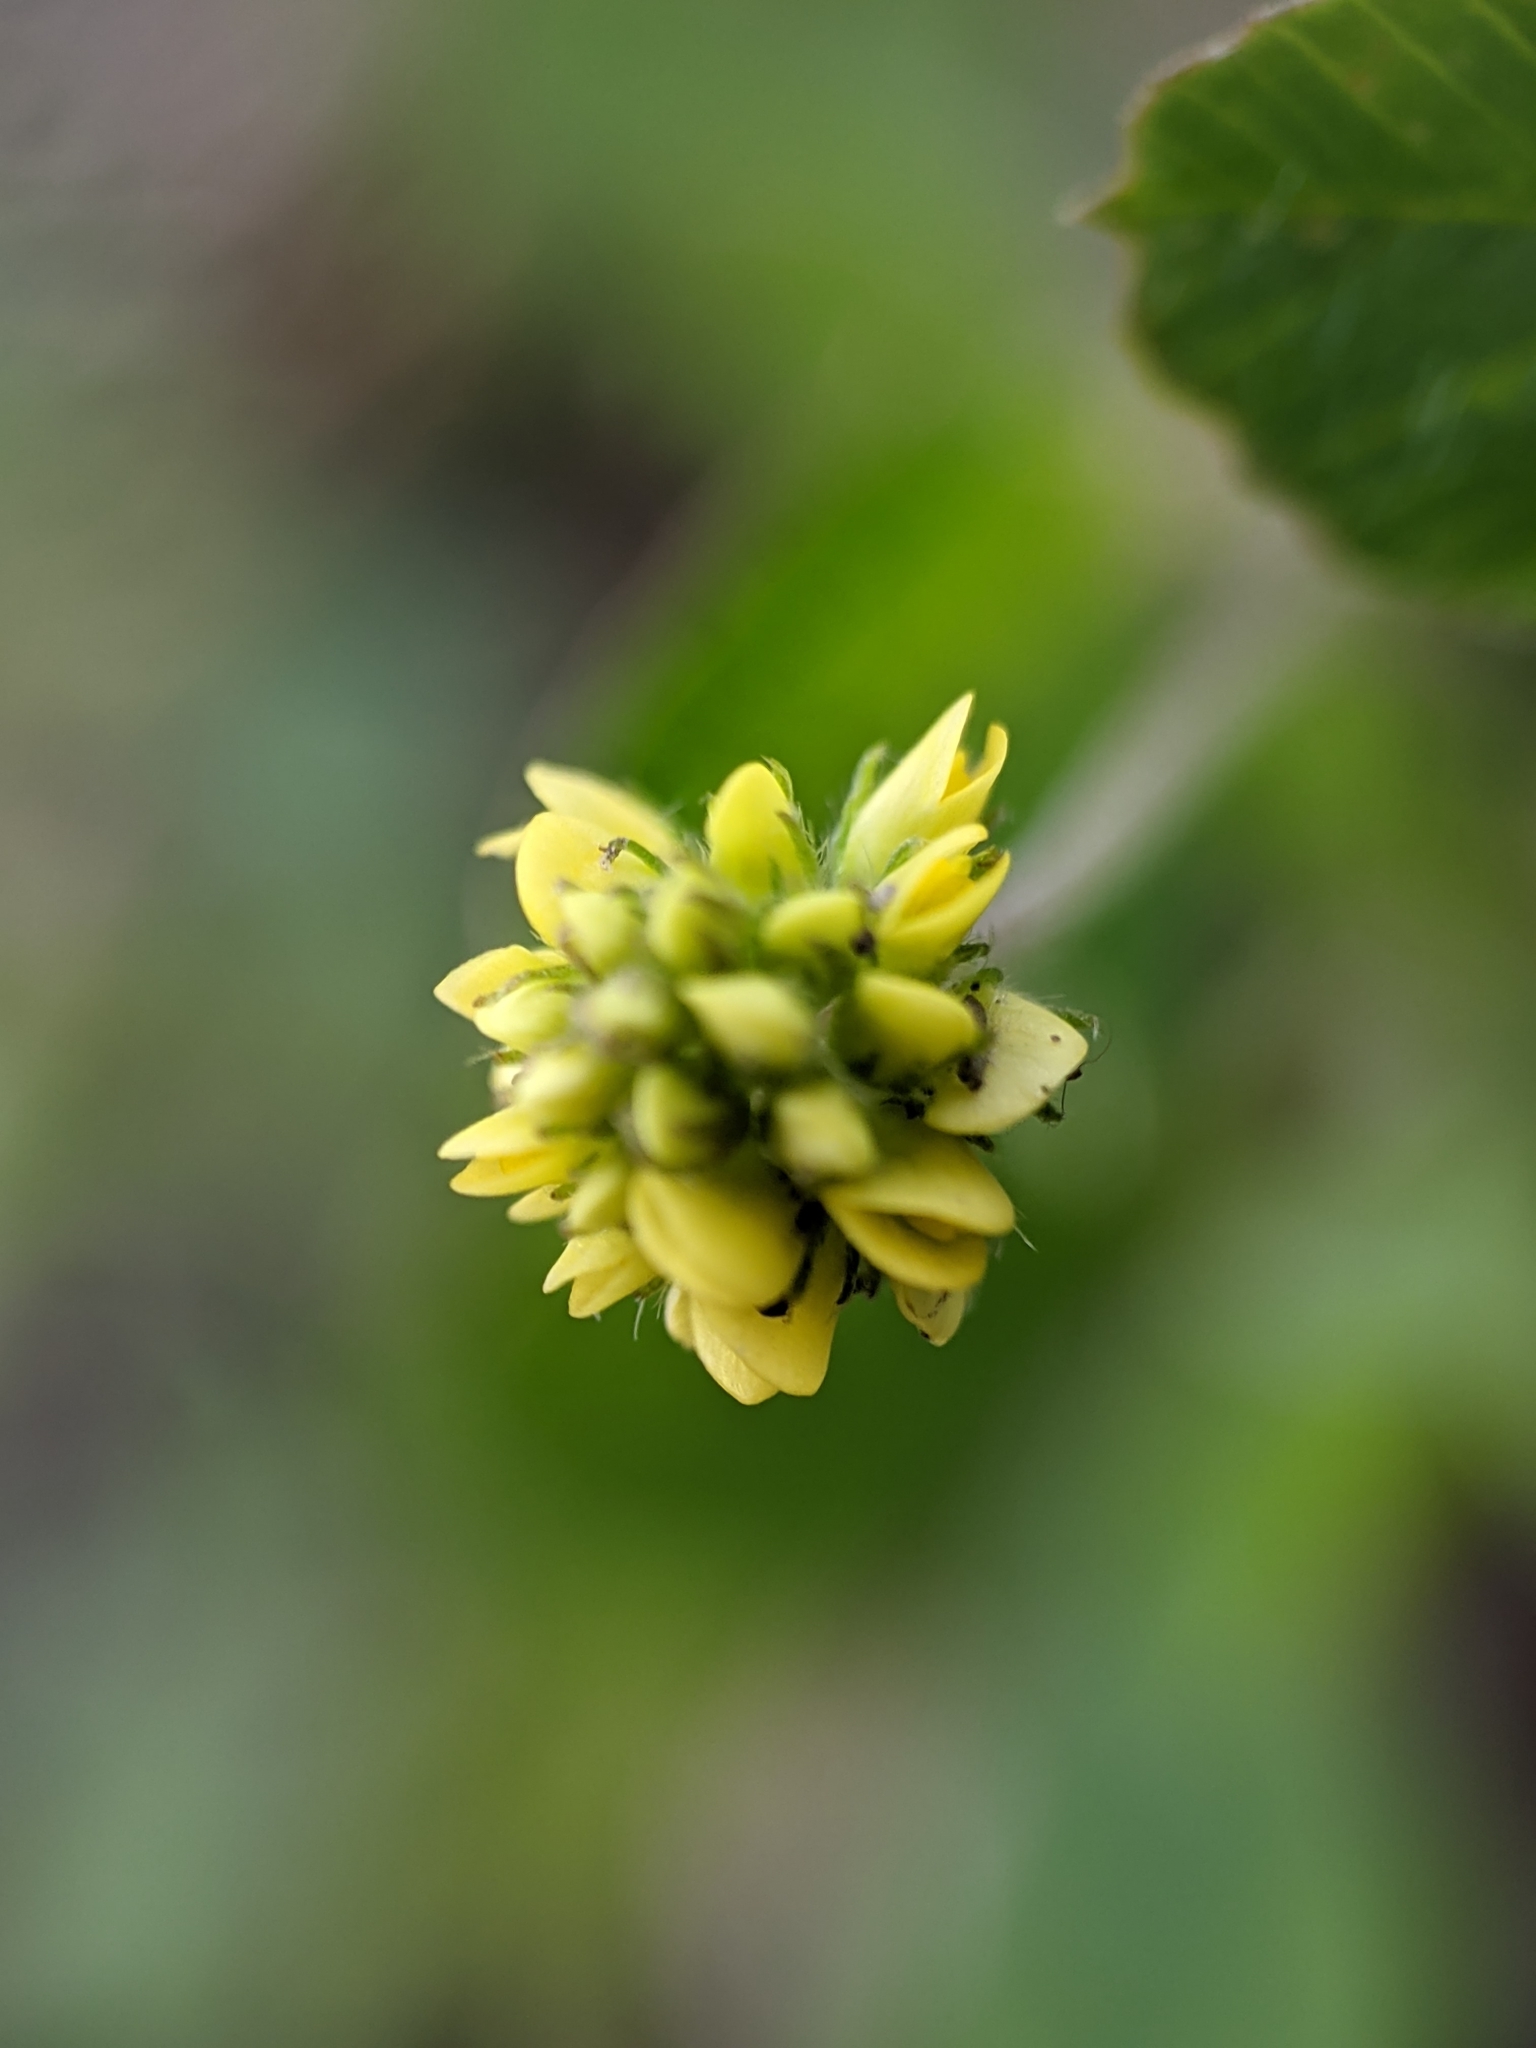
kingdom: Plantae
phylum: Tracheophyta
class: Magnoliopsida
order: Fabales
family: Fabaceae
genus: Medicago
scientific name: Medicago lupulina
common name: Black medick
